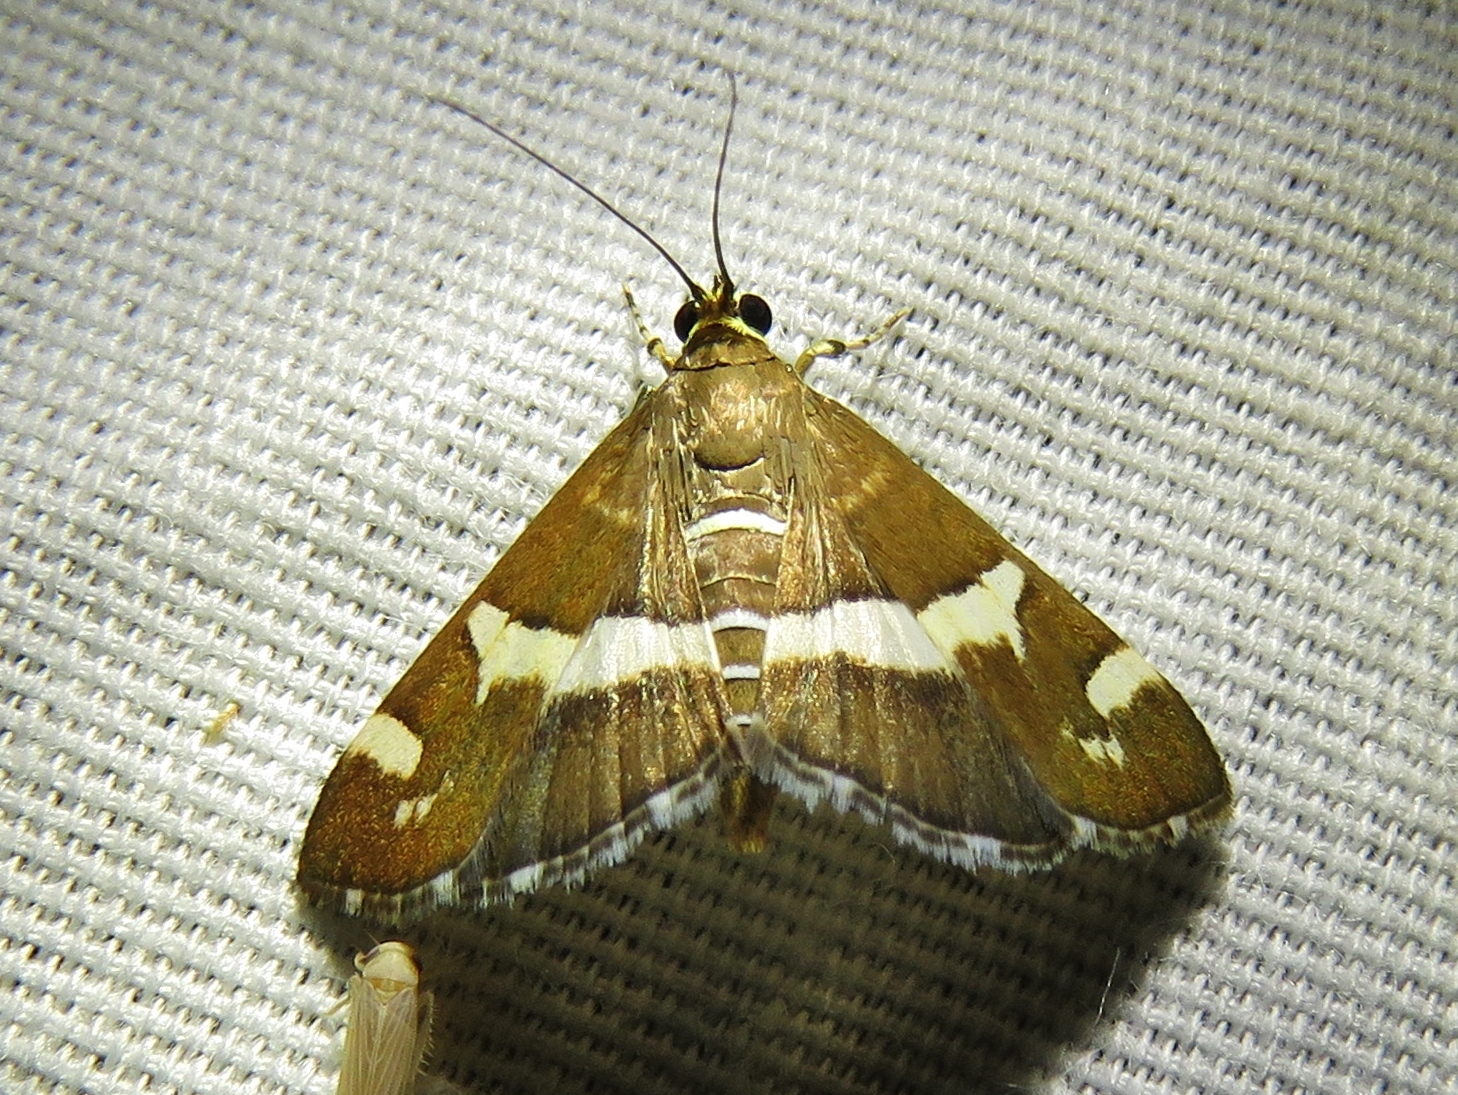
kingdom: Animalia
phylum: Arthropoda
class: Insecta
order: Lepidoptera
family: Crambidae
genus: Spoladea
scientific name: Spoladea recurvalis
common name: Beet webworm moth
